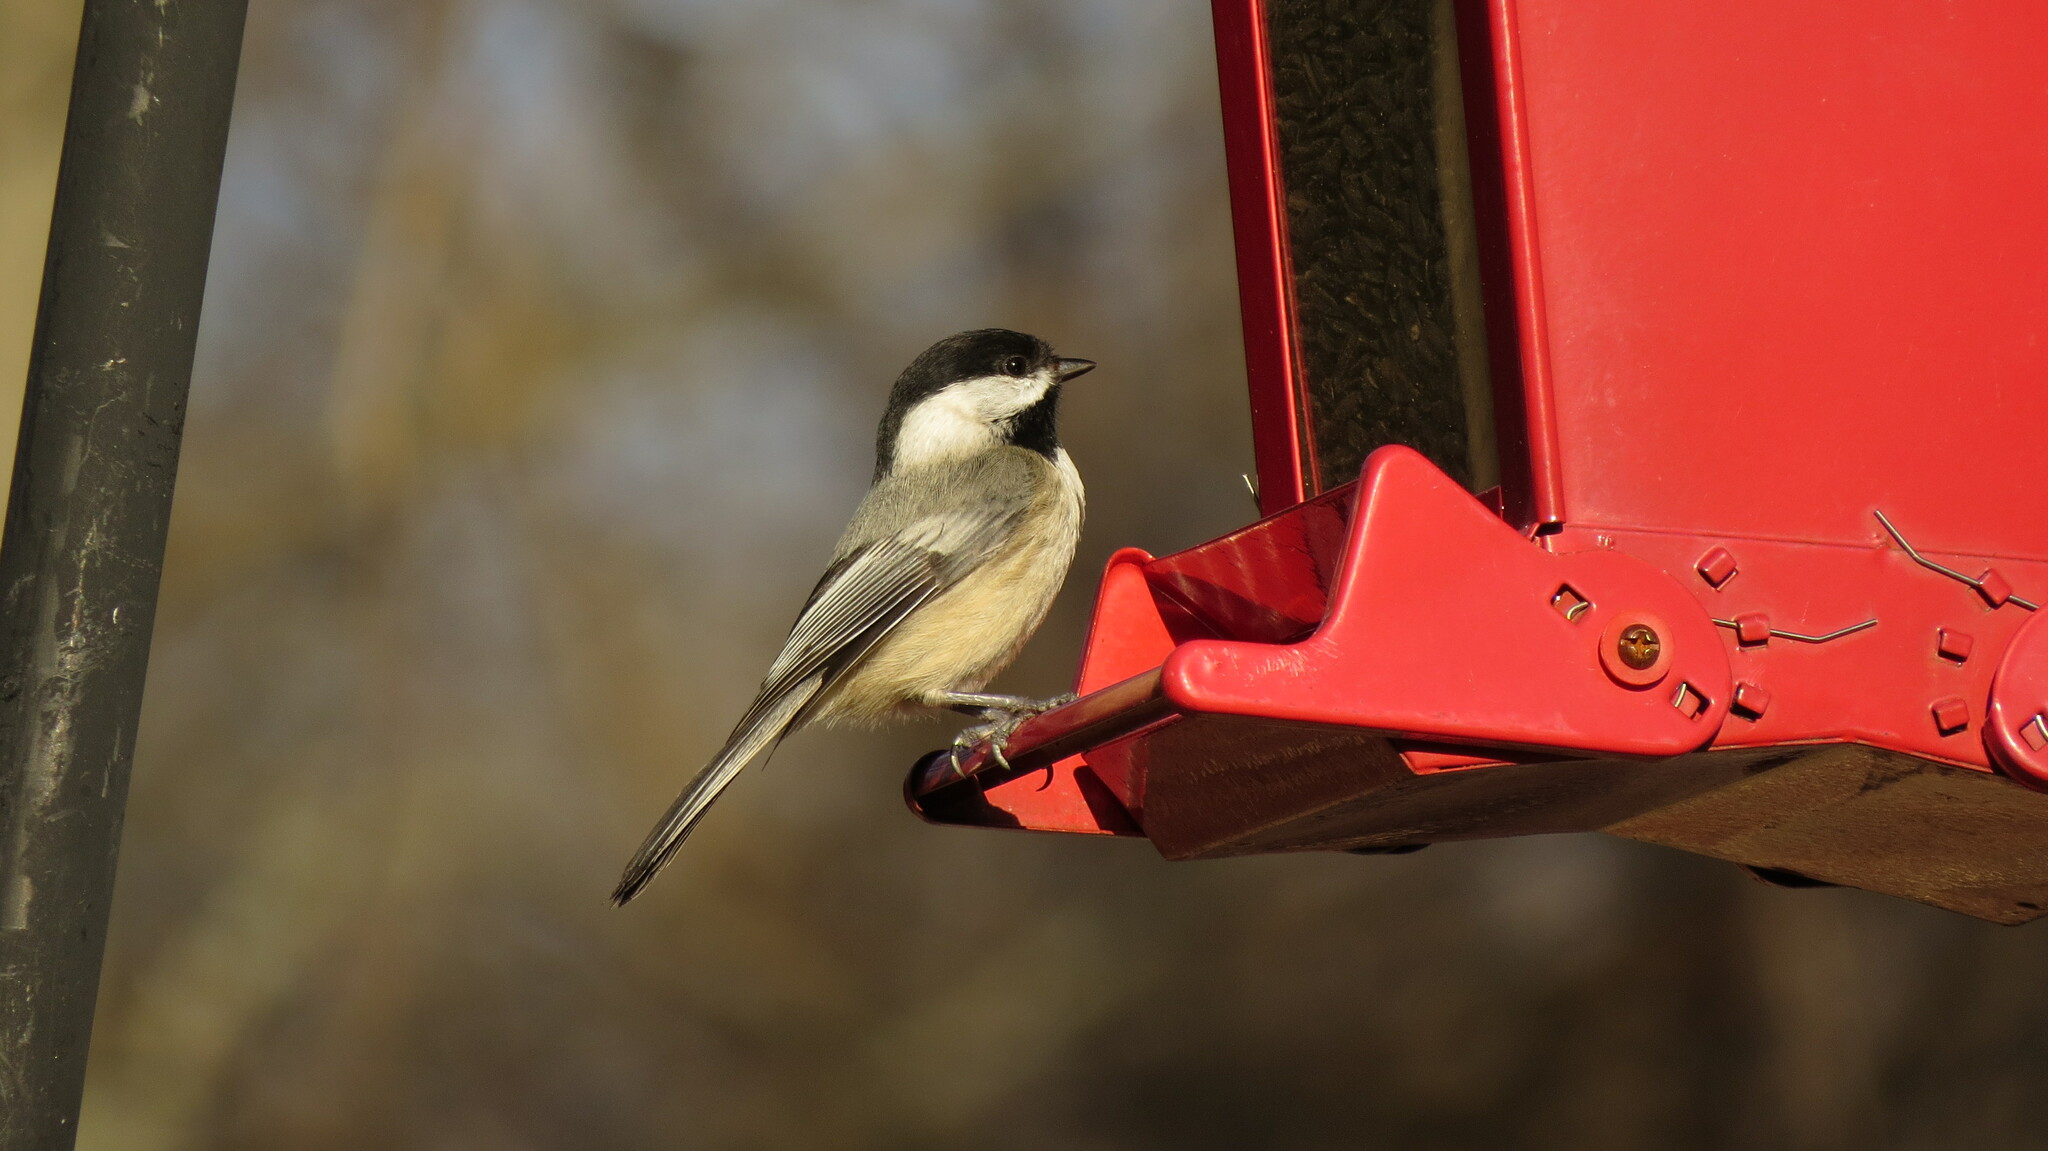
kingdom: Animalia
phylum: Chordata
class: Aves
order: Passeriformes
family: Paridae
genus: Poecile
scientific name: Poecile atricapillus
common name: Black-capped chickadee
